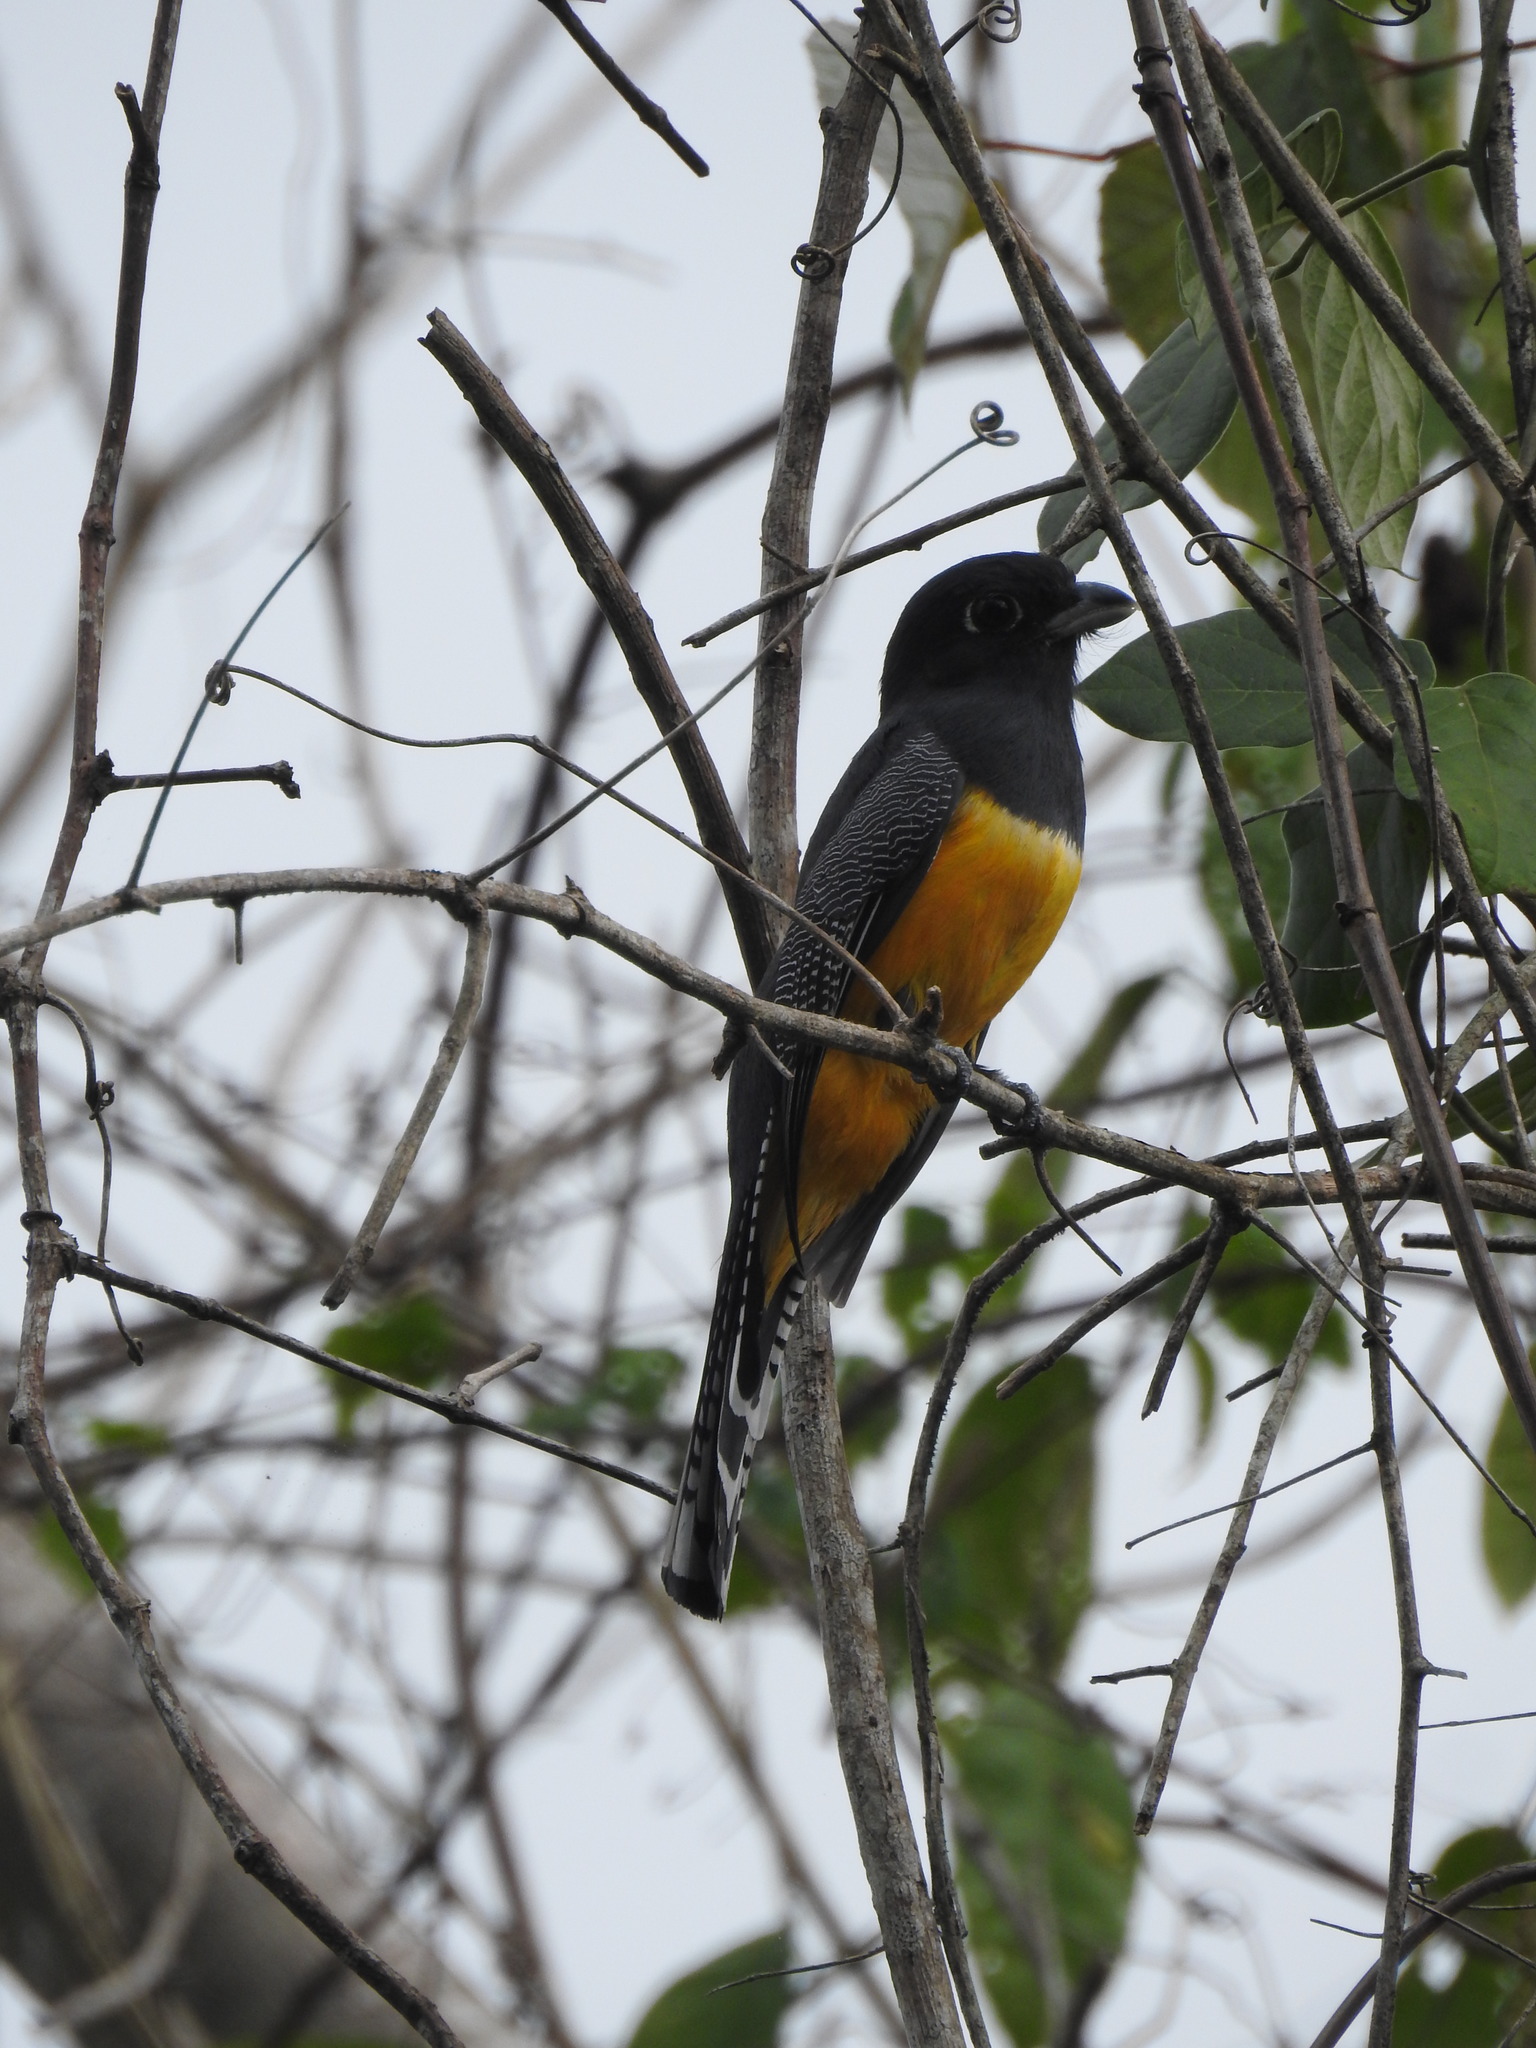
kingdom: Animalia
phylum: Chordata
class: Aves
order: Trogoniformes
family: Trogonidae
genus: Trogon
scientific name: Trogon melanocephalus
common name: Black-headed trogon
